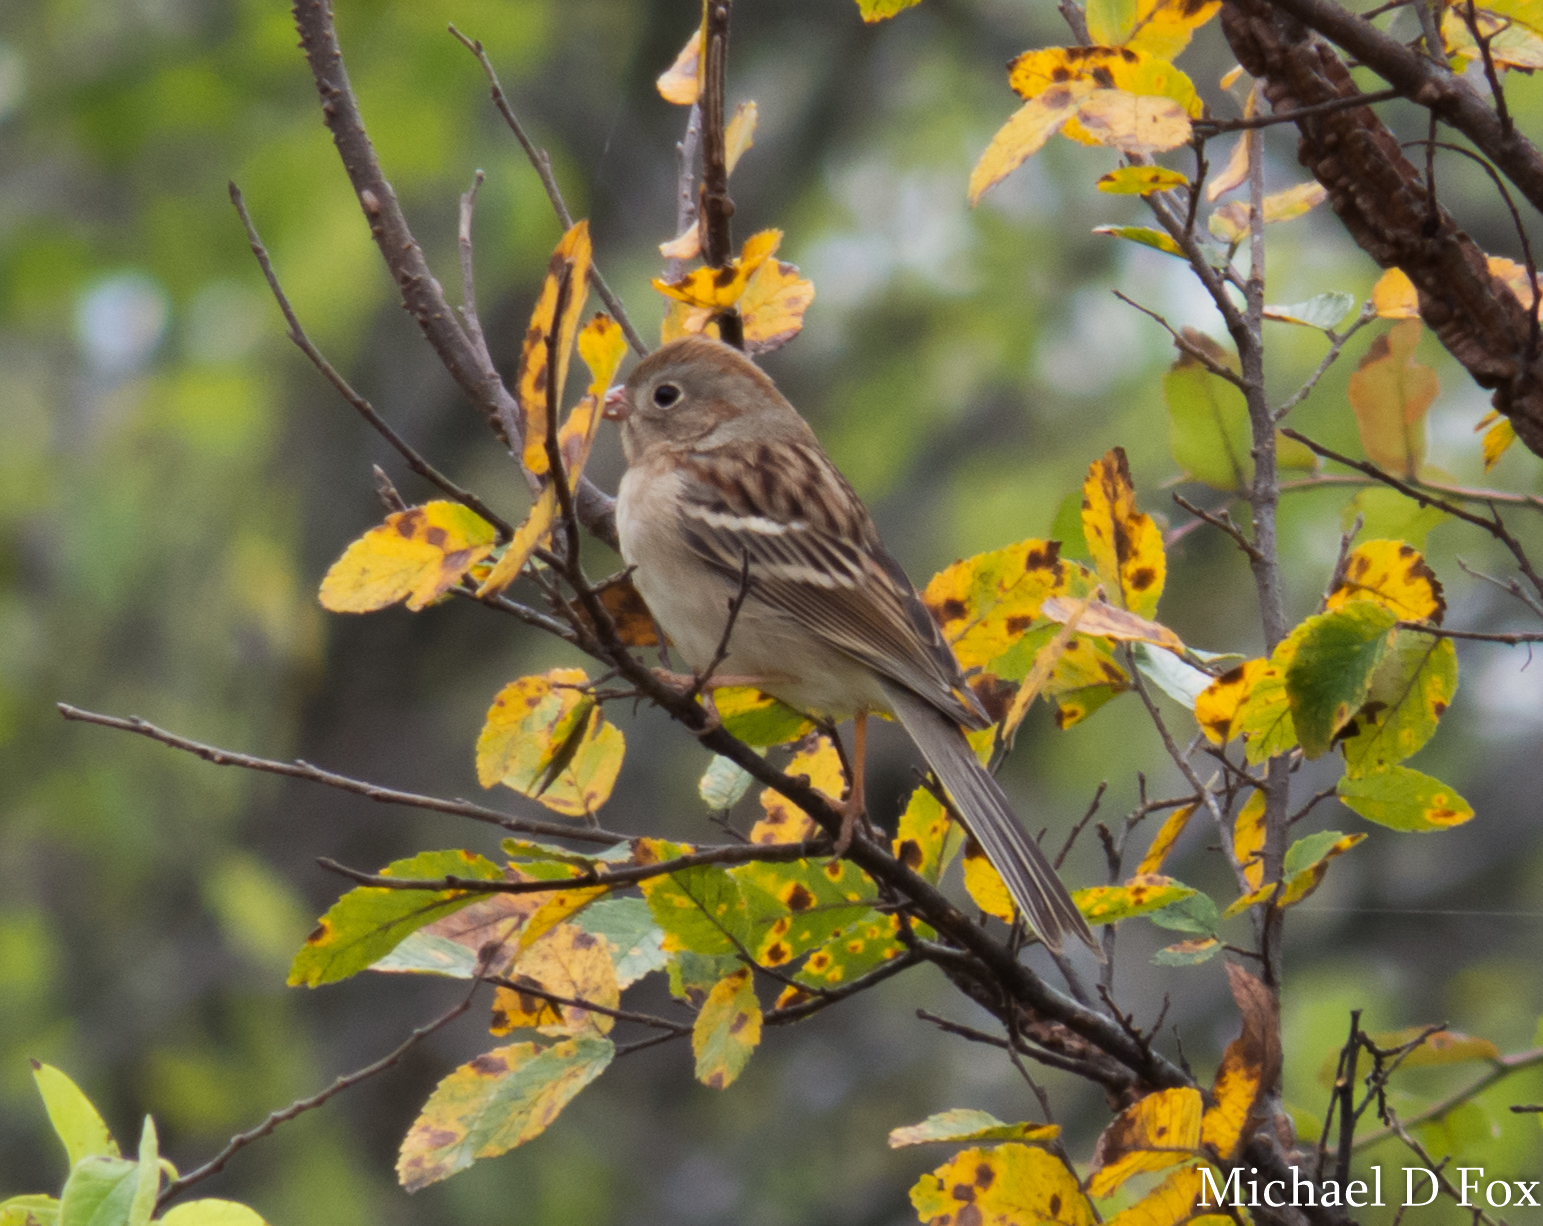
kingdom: Animalia
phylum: Chordata
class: Aves
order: Passeriformes
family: Passerellidae
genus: Spizella
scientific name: Spizella pusilla
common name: Field sparrow
